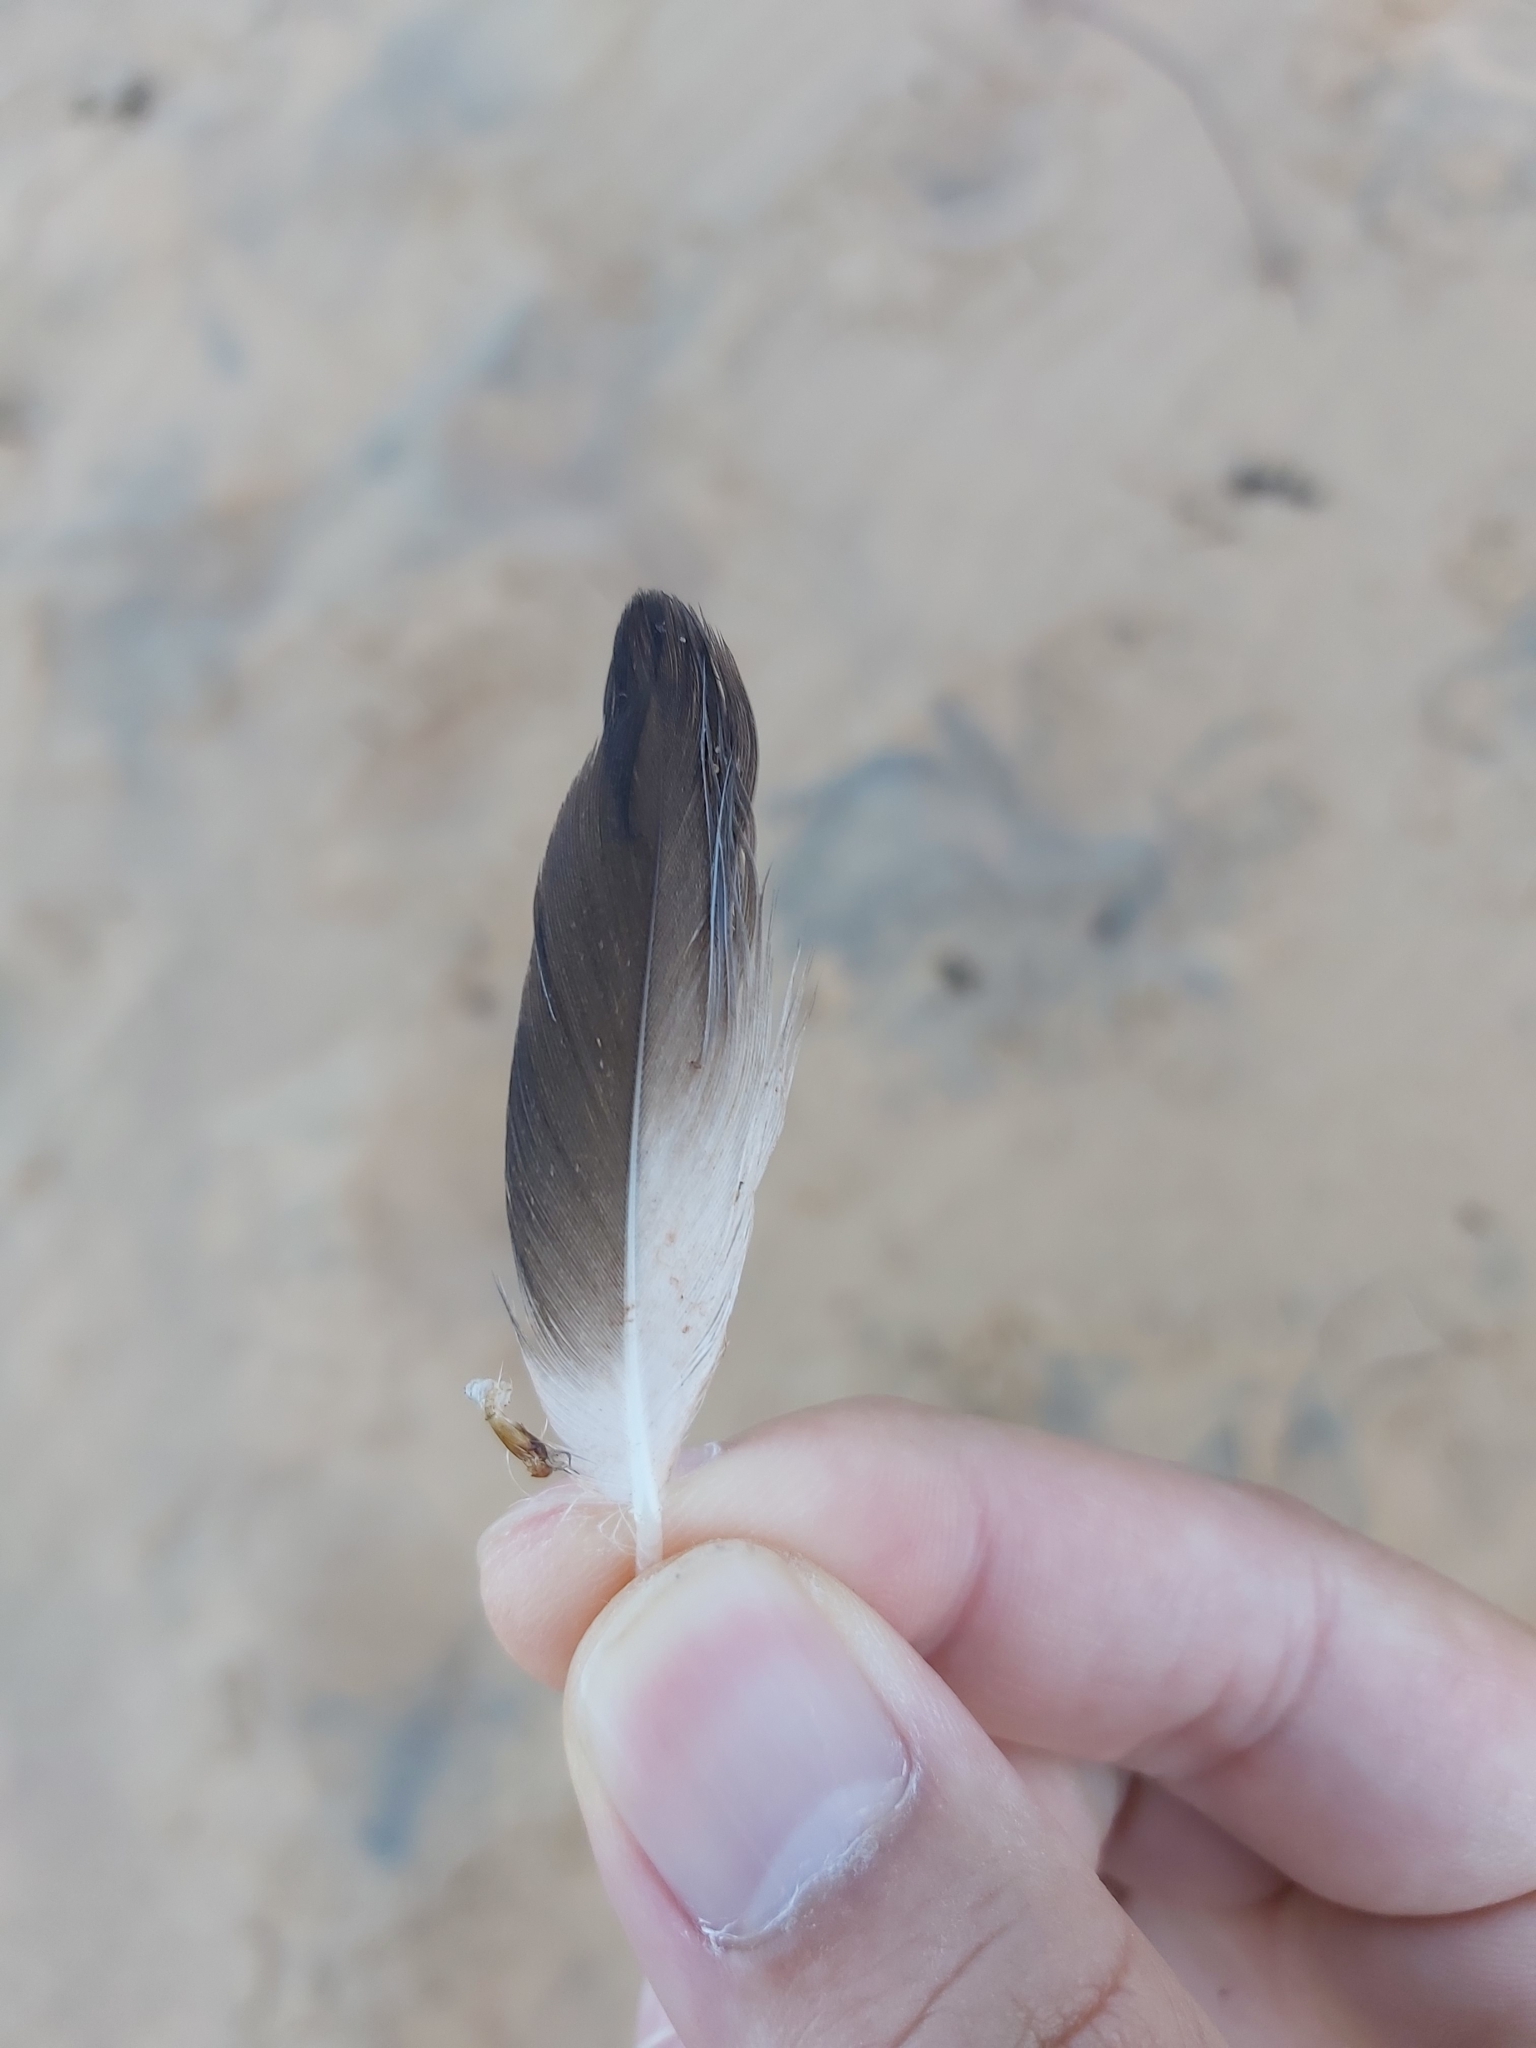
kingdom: Animalia
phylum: Chordata
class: Aves
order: Suliformes
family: Sulidae
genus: Morus
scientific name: Morus serrator
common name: Australasian gannet
